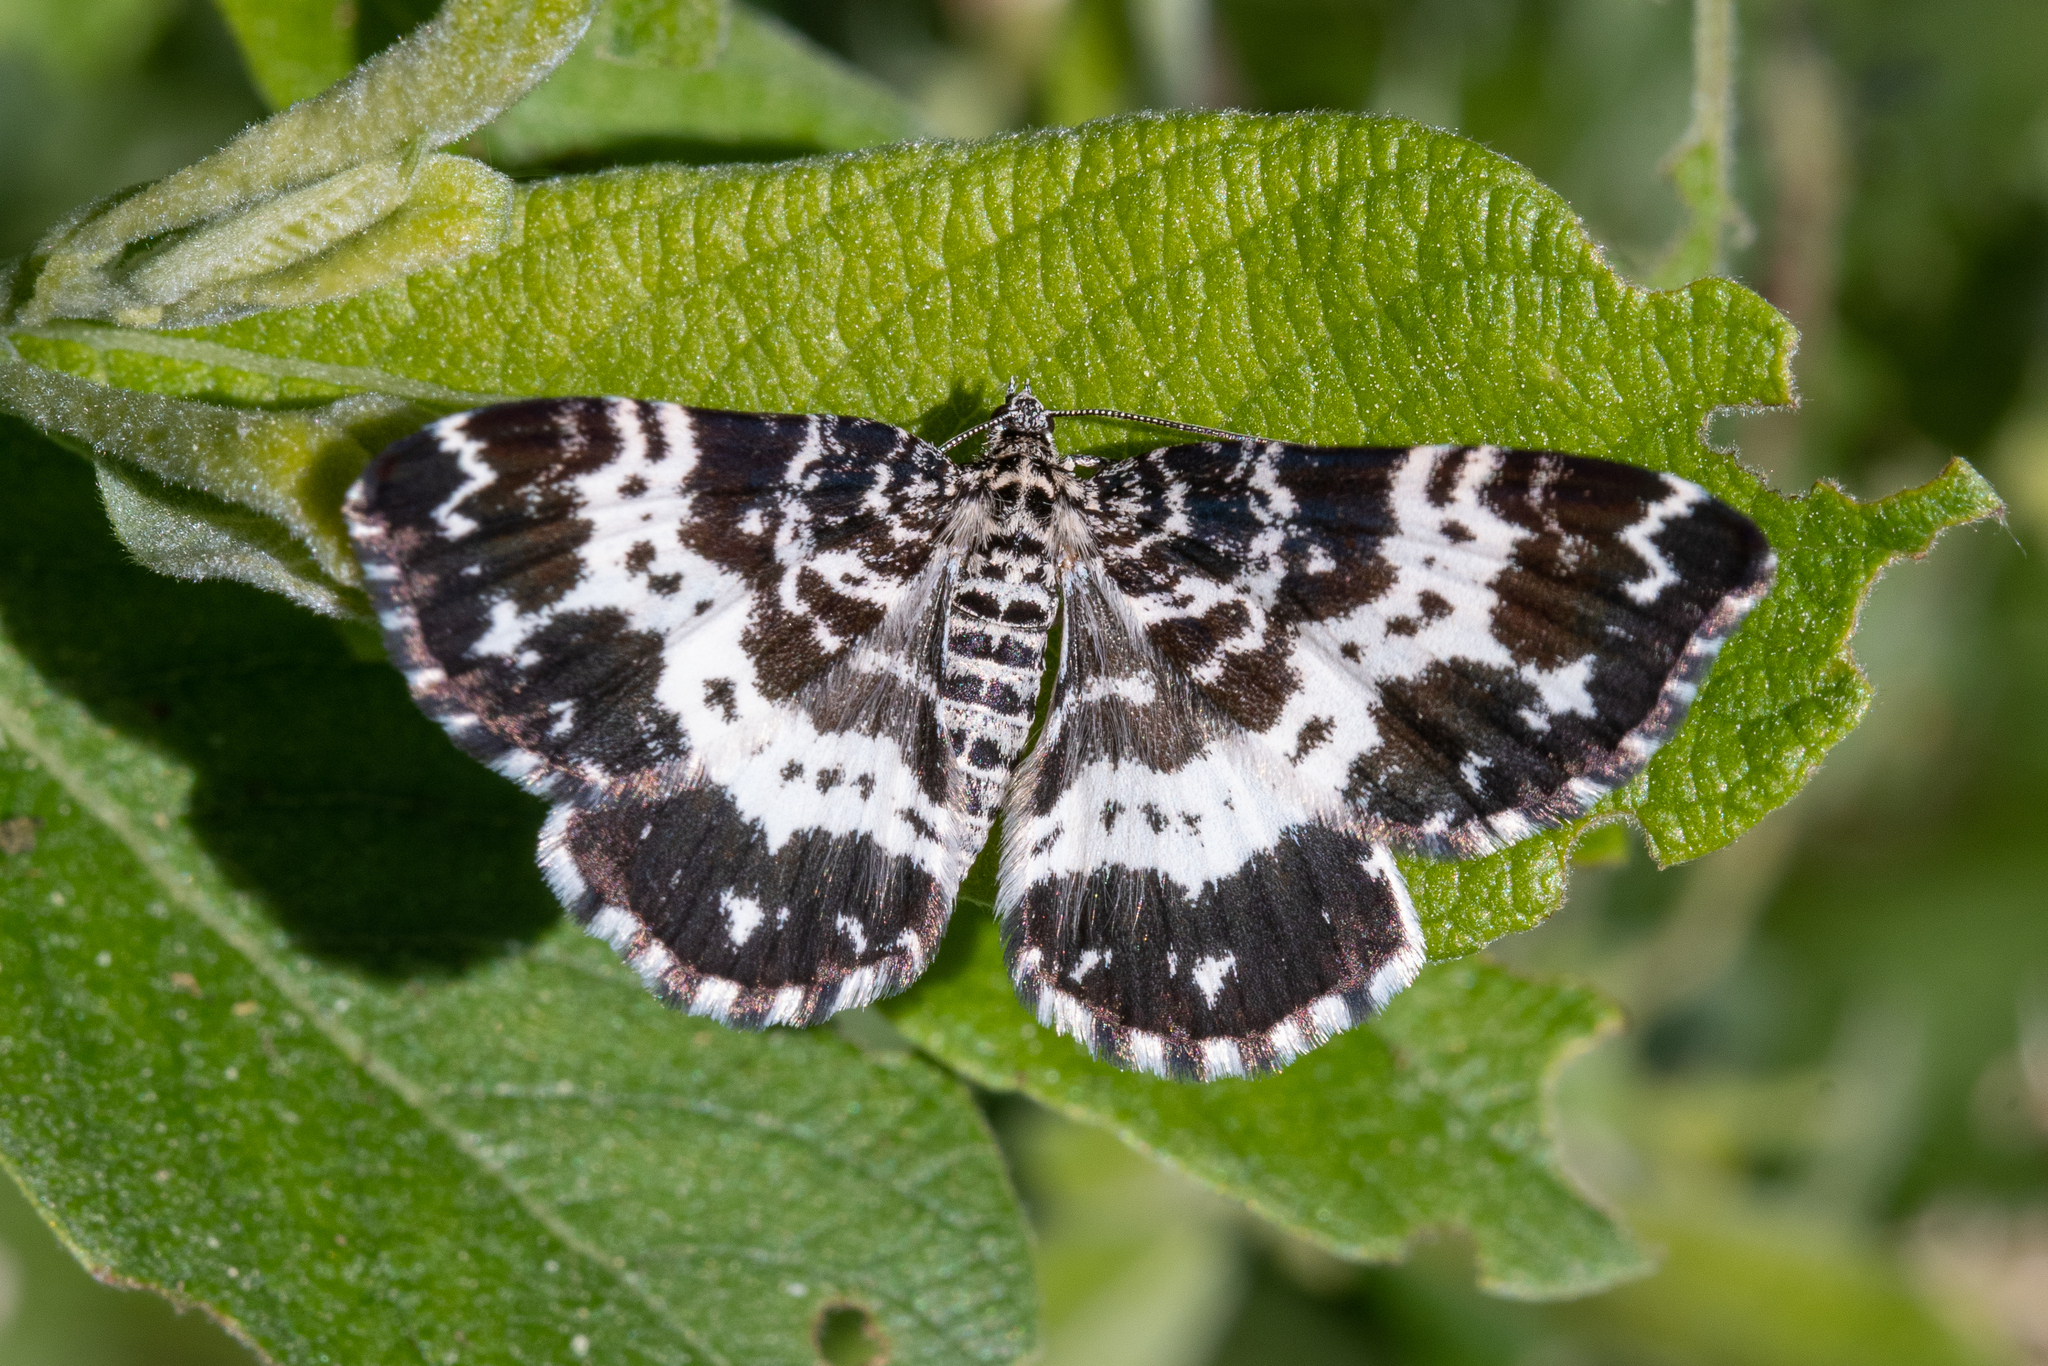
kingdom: Animalia
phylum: Arthropoda
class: Insecta
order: Lepidoptera
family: Geometridae
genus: Rheumaptera
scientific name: Rheumaptera hastata
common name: Argent & sable
